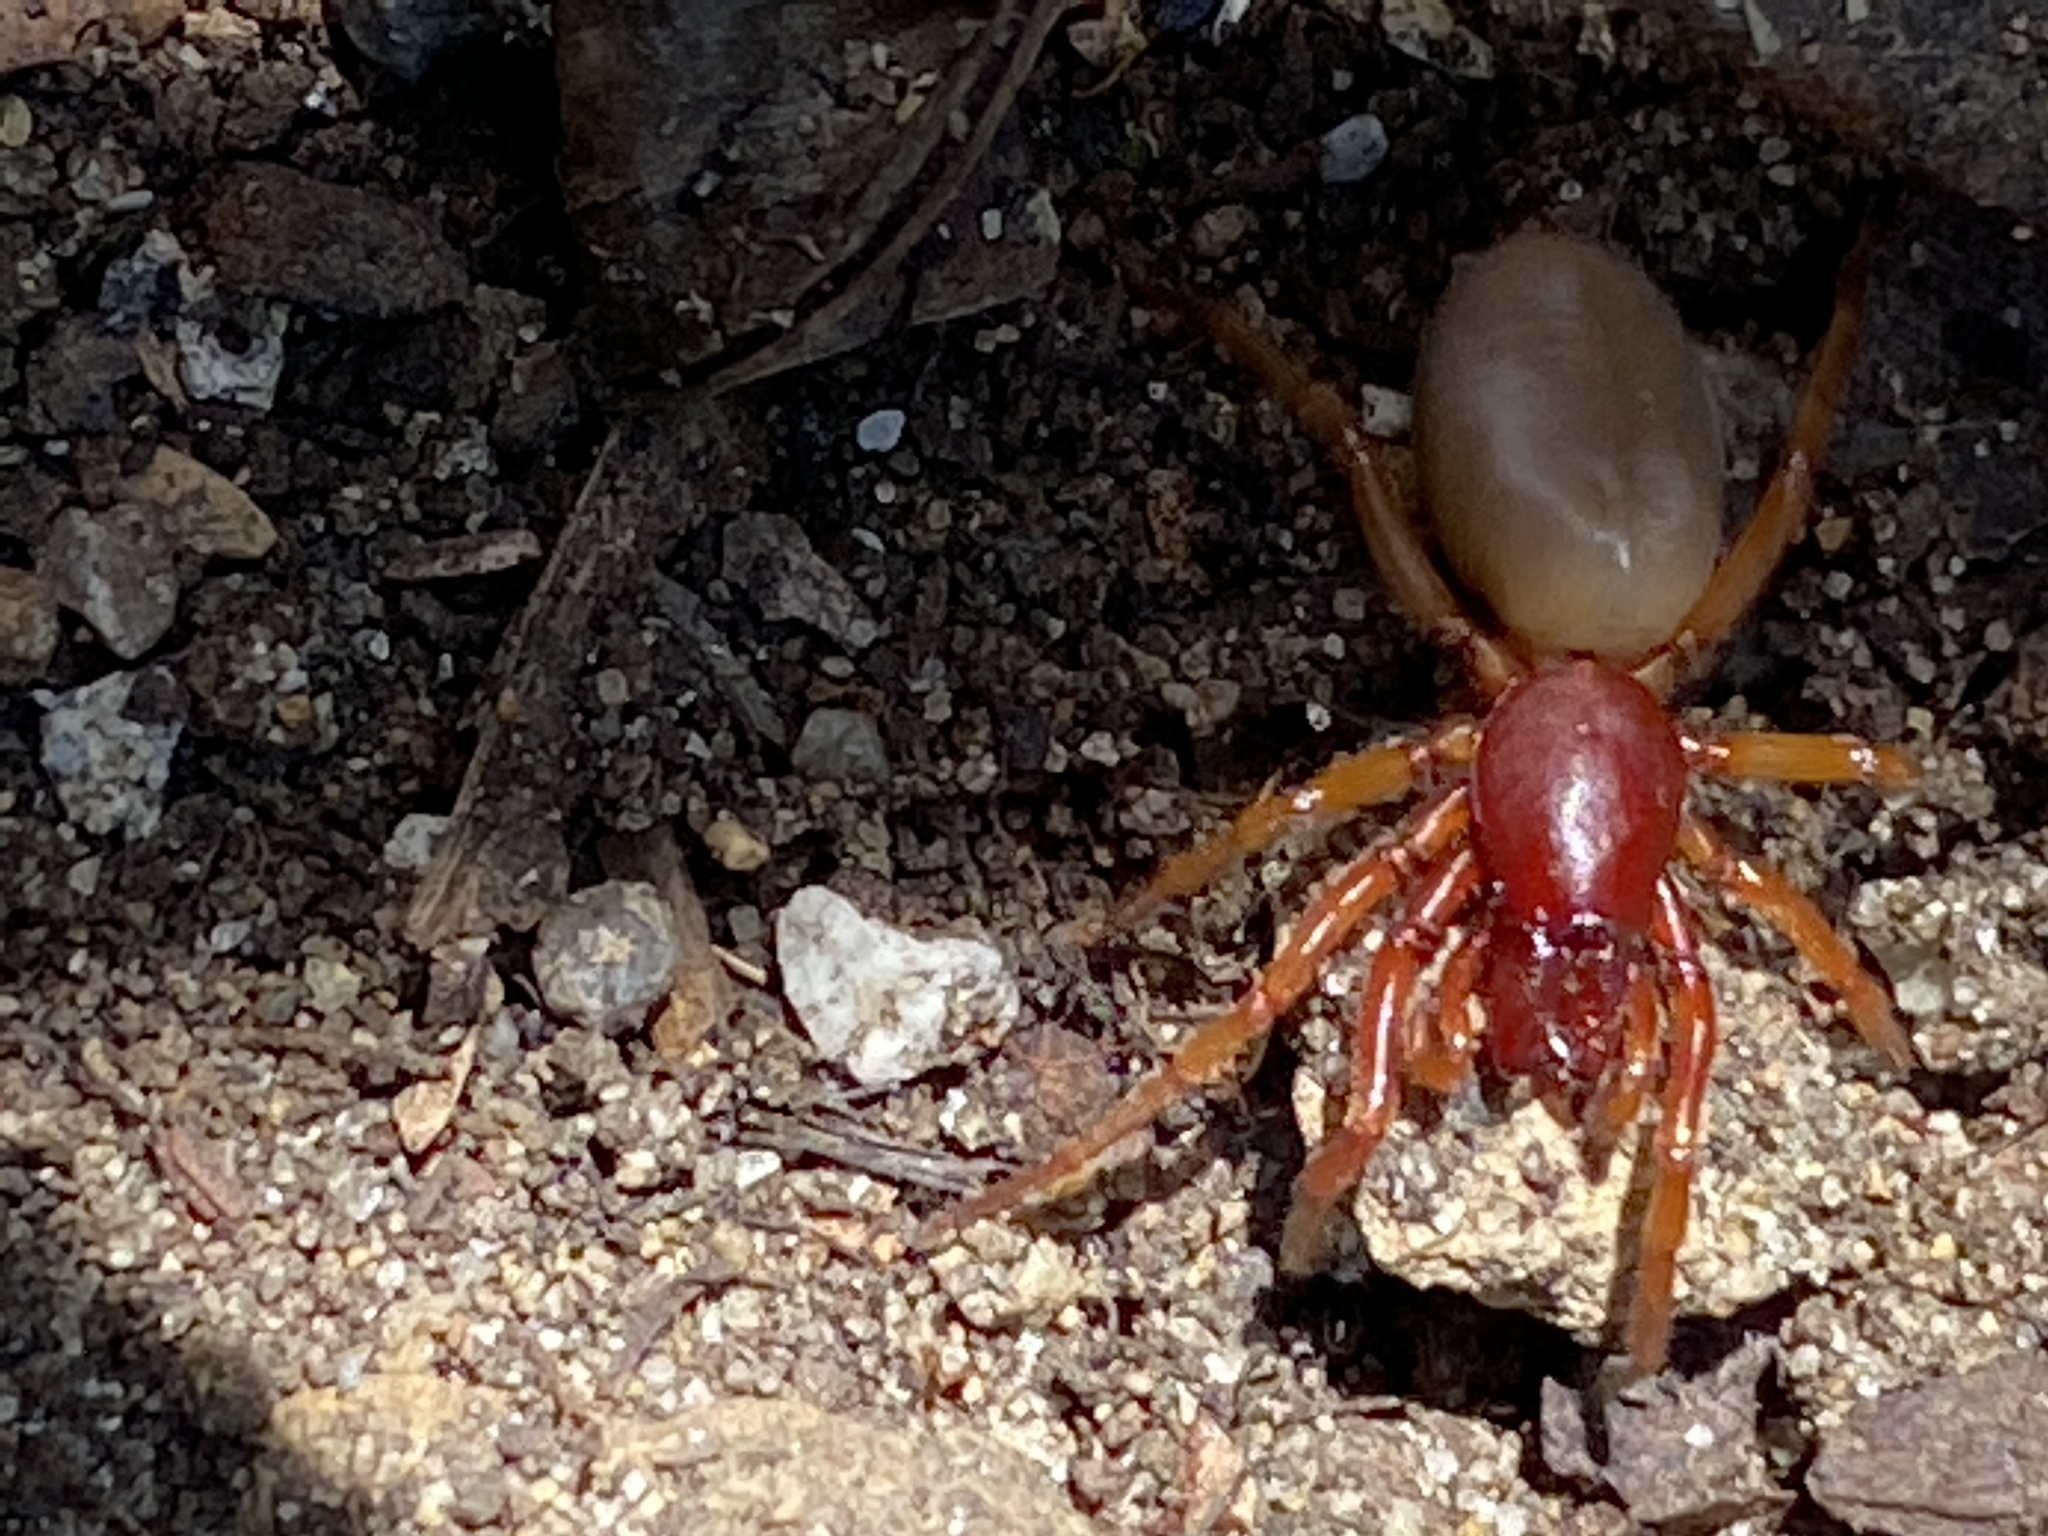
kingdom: Animalia
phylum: Arthropoda
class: Arachnida
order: Araneae
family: Dysderidae
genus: Dysdera
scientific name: Dysdera crocata
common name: Woodlouse spider
